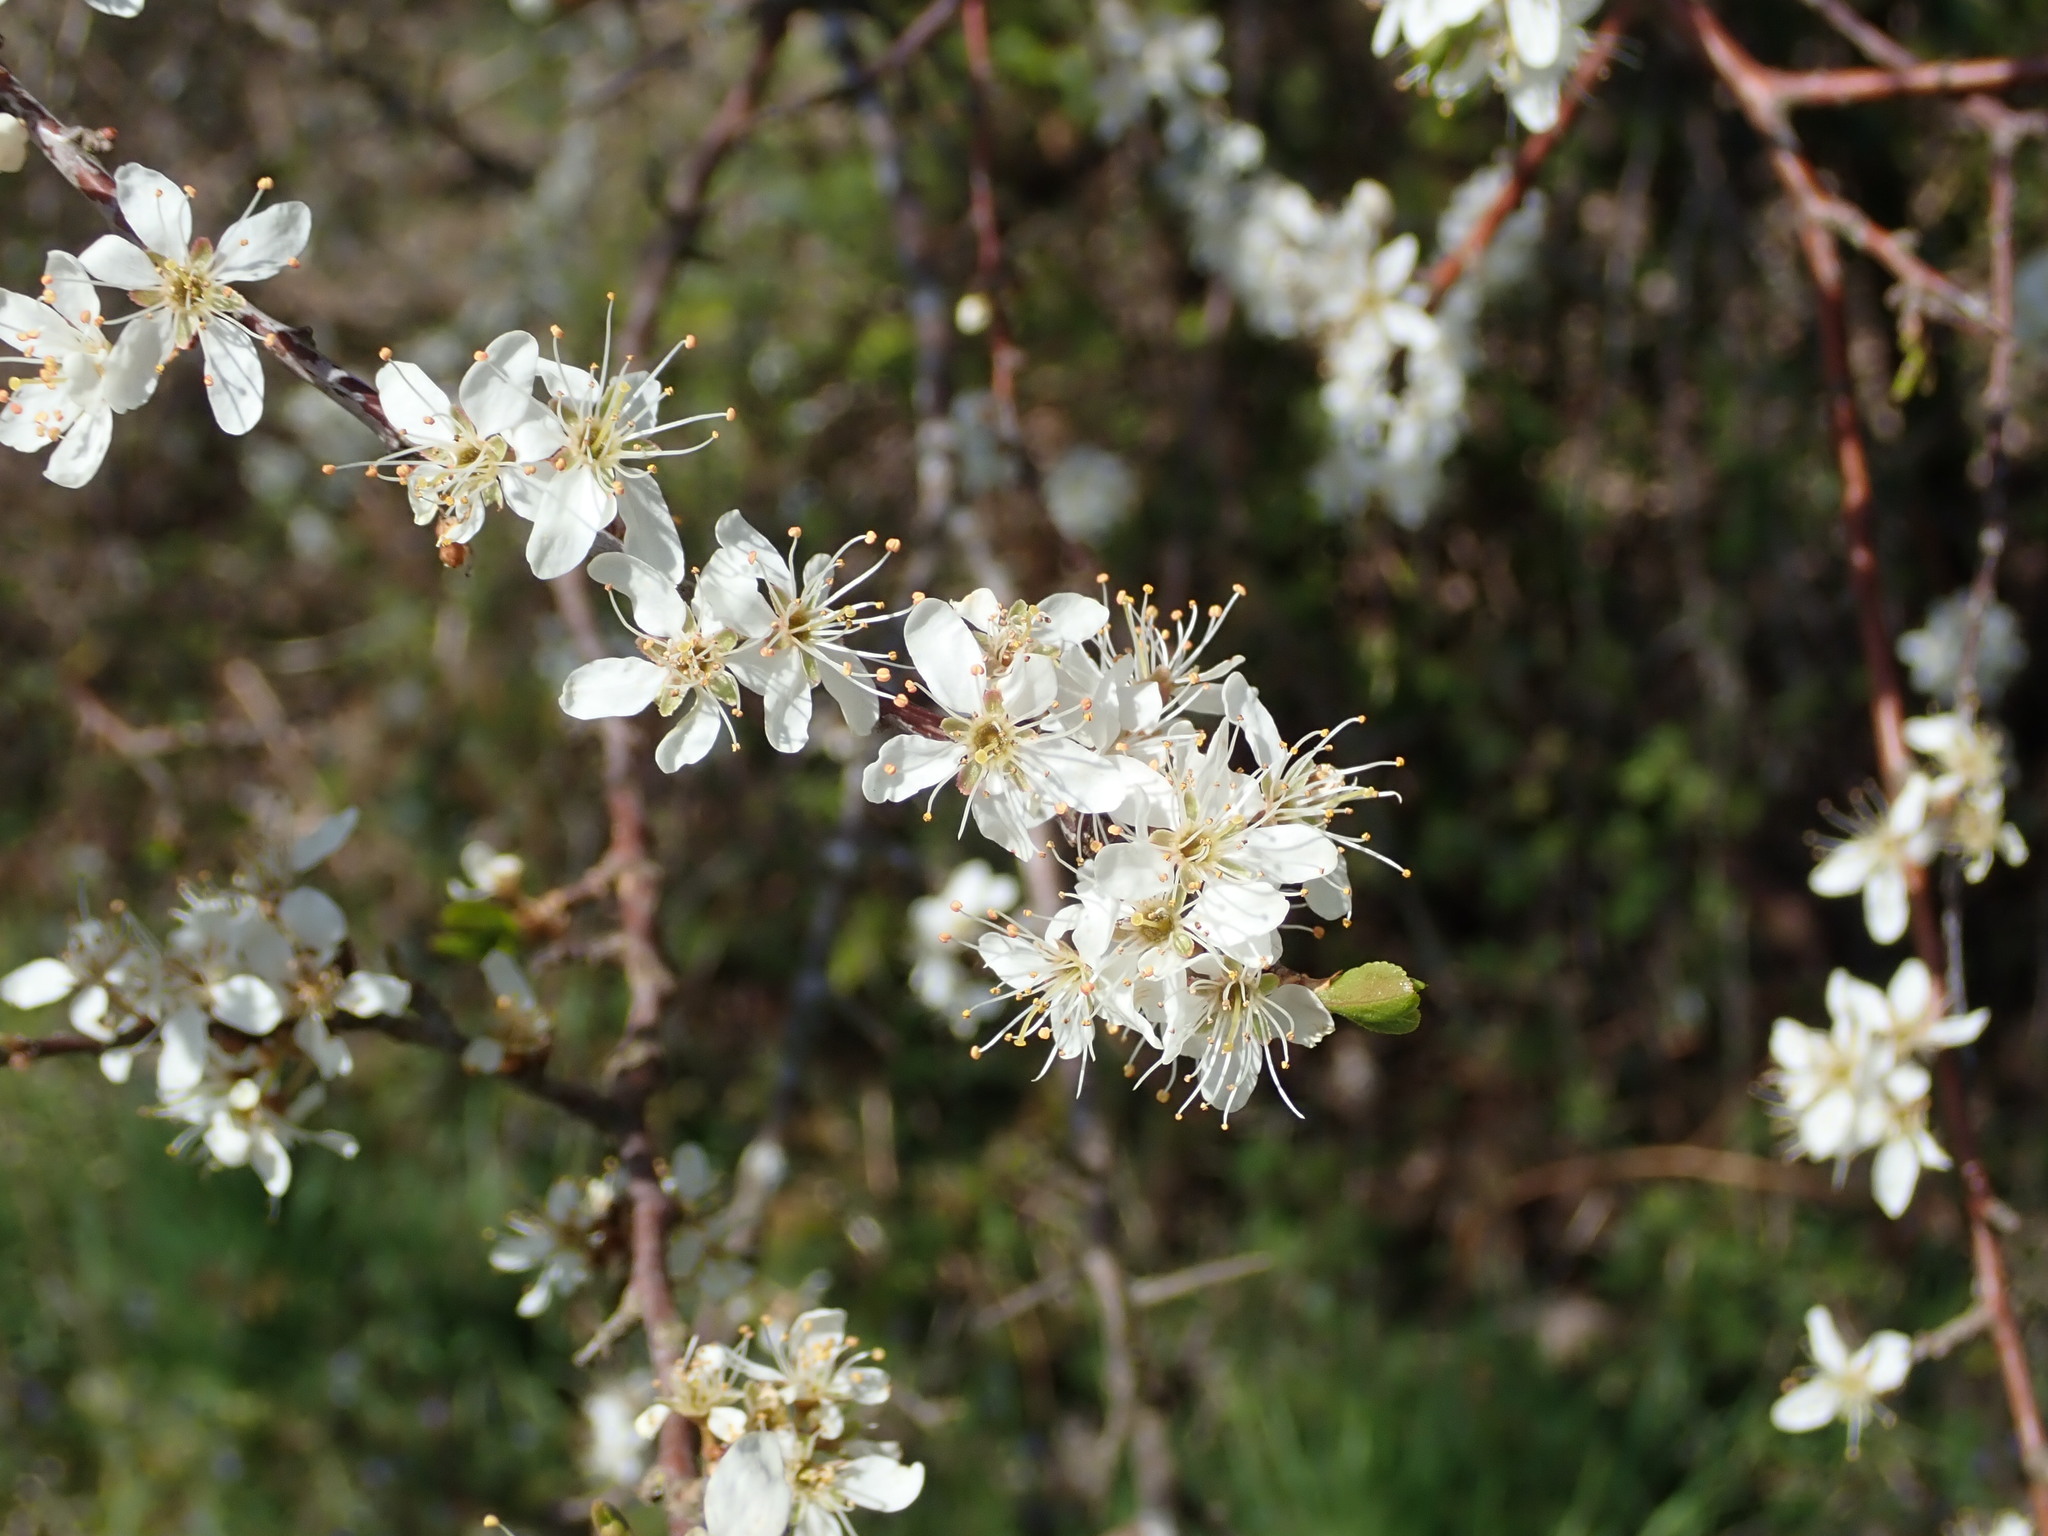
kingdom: Plantae
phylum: Tracheophyta
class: Magnoliopsida
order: Rosales
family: Rosaceae
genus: Prunus
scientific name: Prunus spinosa
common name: Blackthorn
